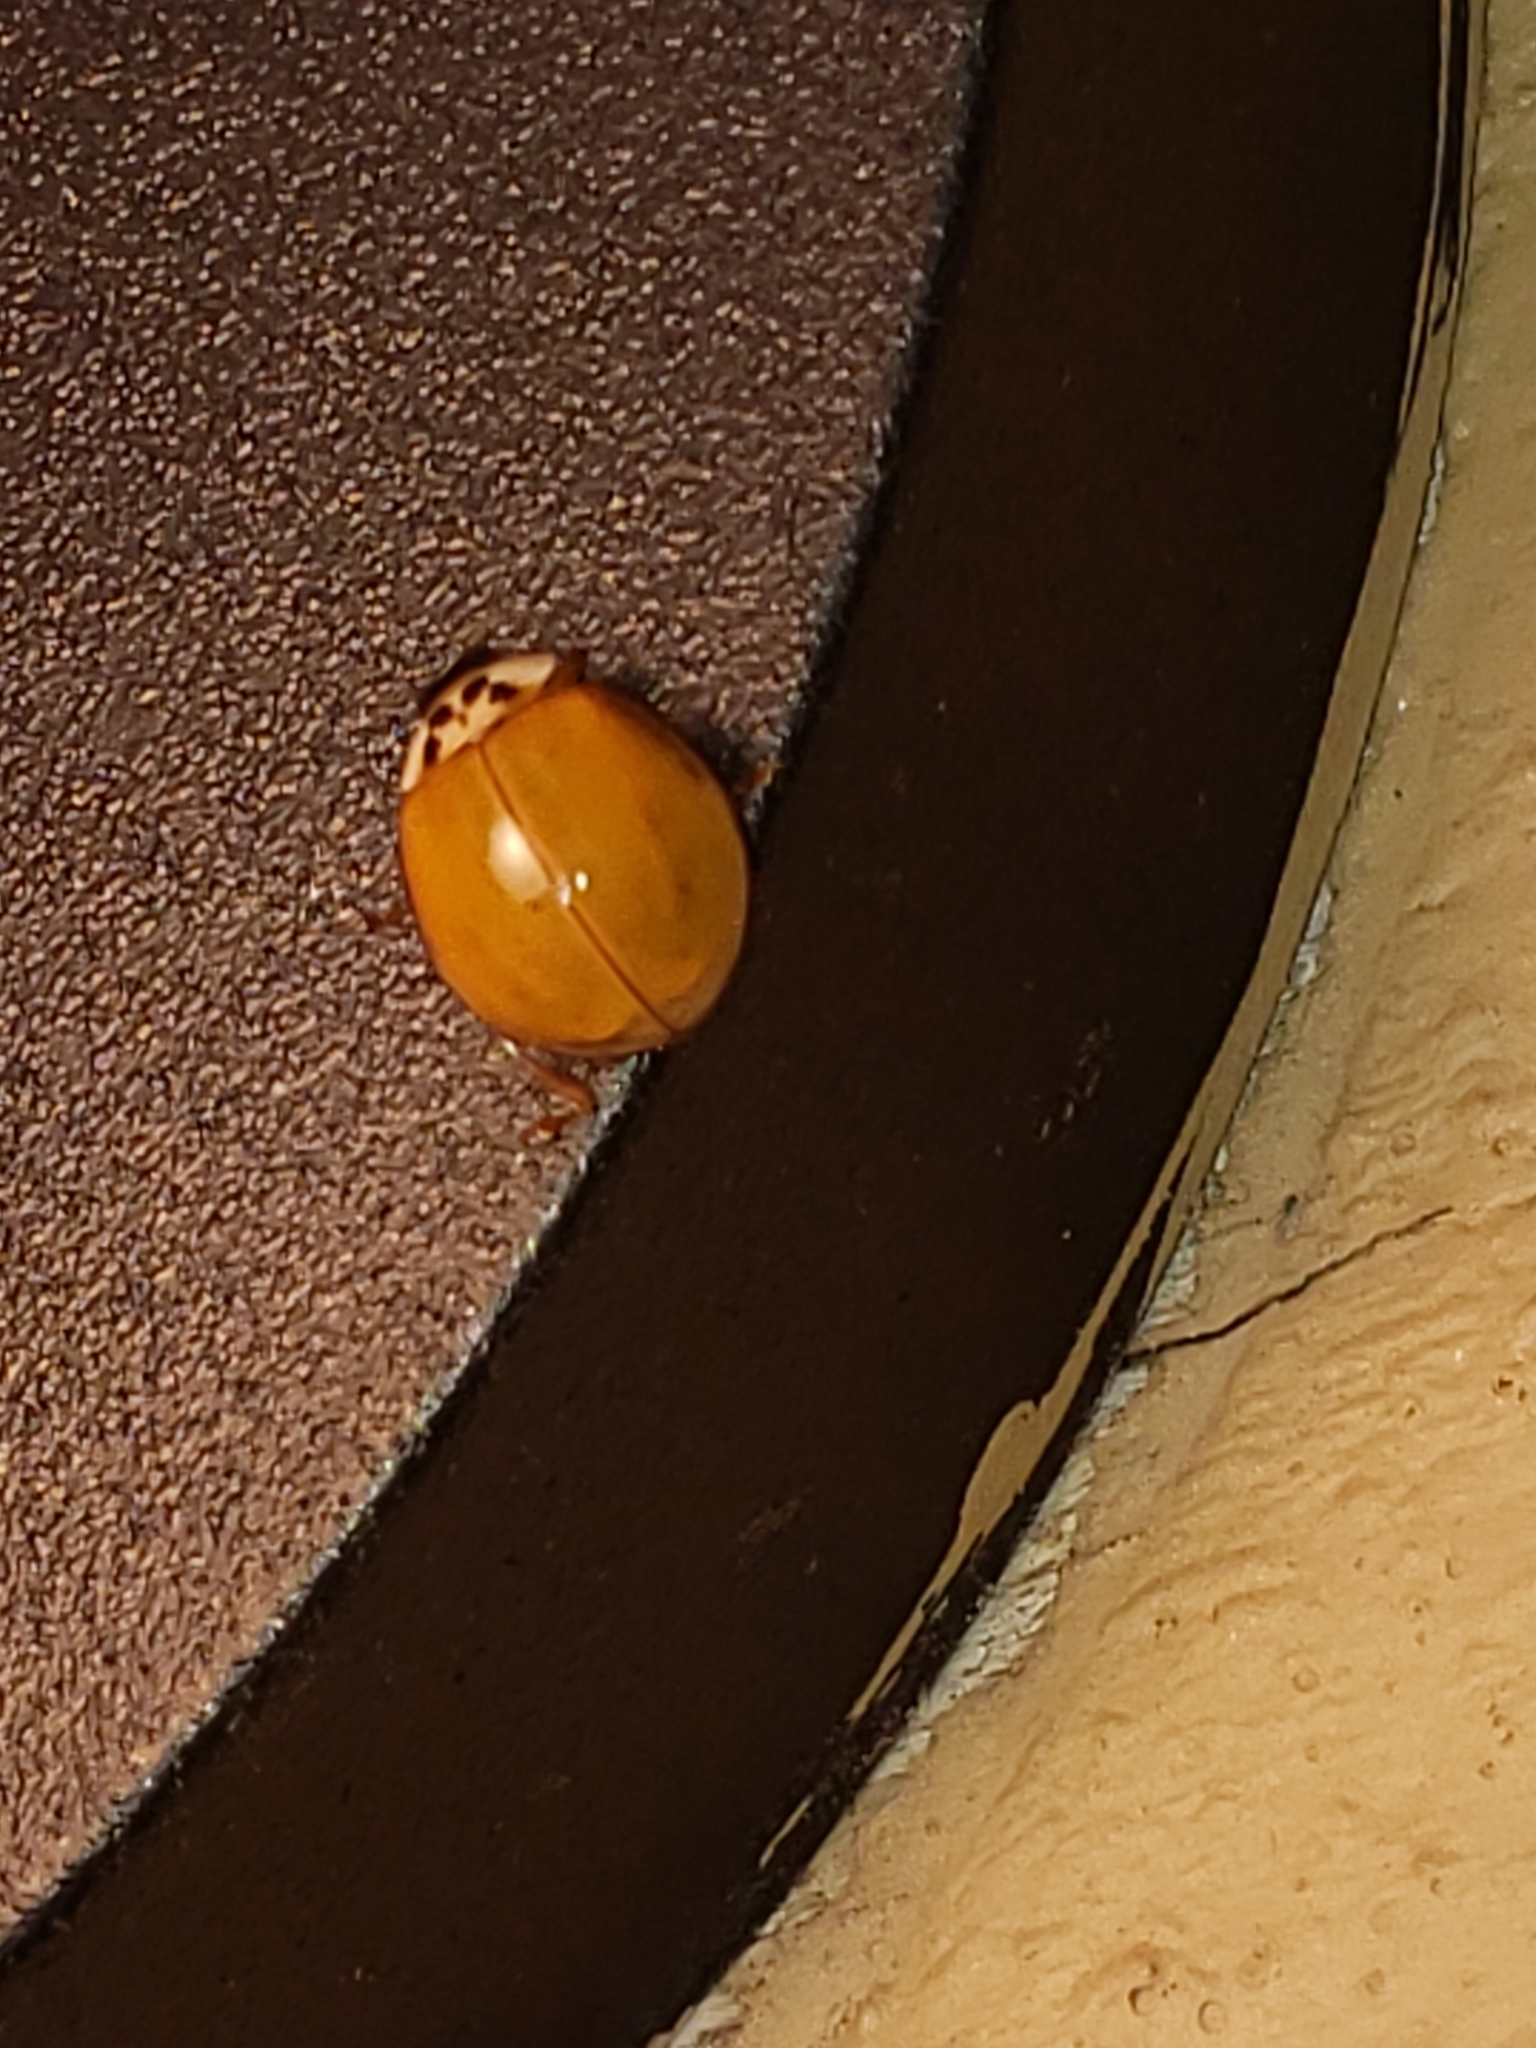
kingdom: Animalia
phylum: Arthropoda
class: Insecta
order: Coleoptera
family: Coccinellidae
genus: Harmonia
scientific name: Harmonia axyridis
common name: Harlequin ladybird
